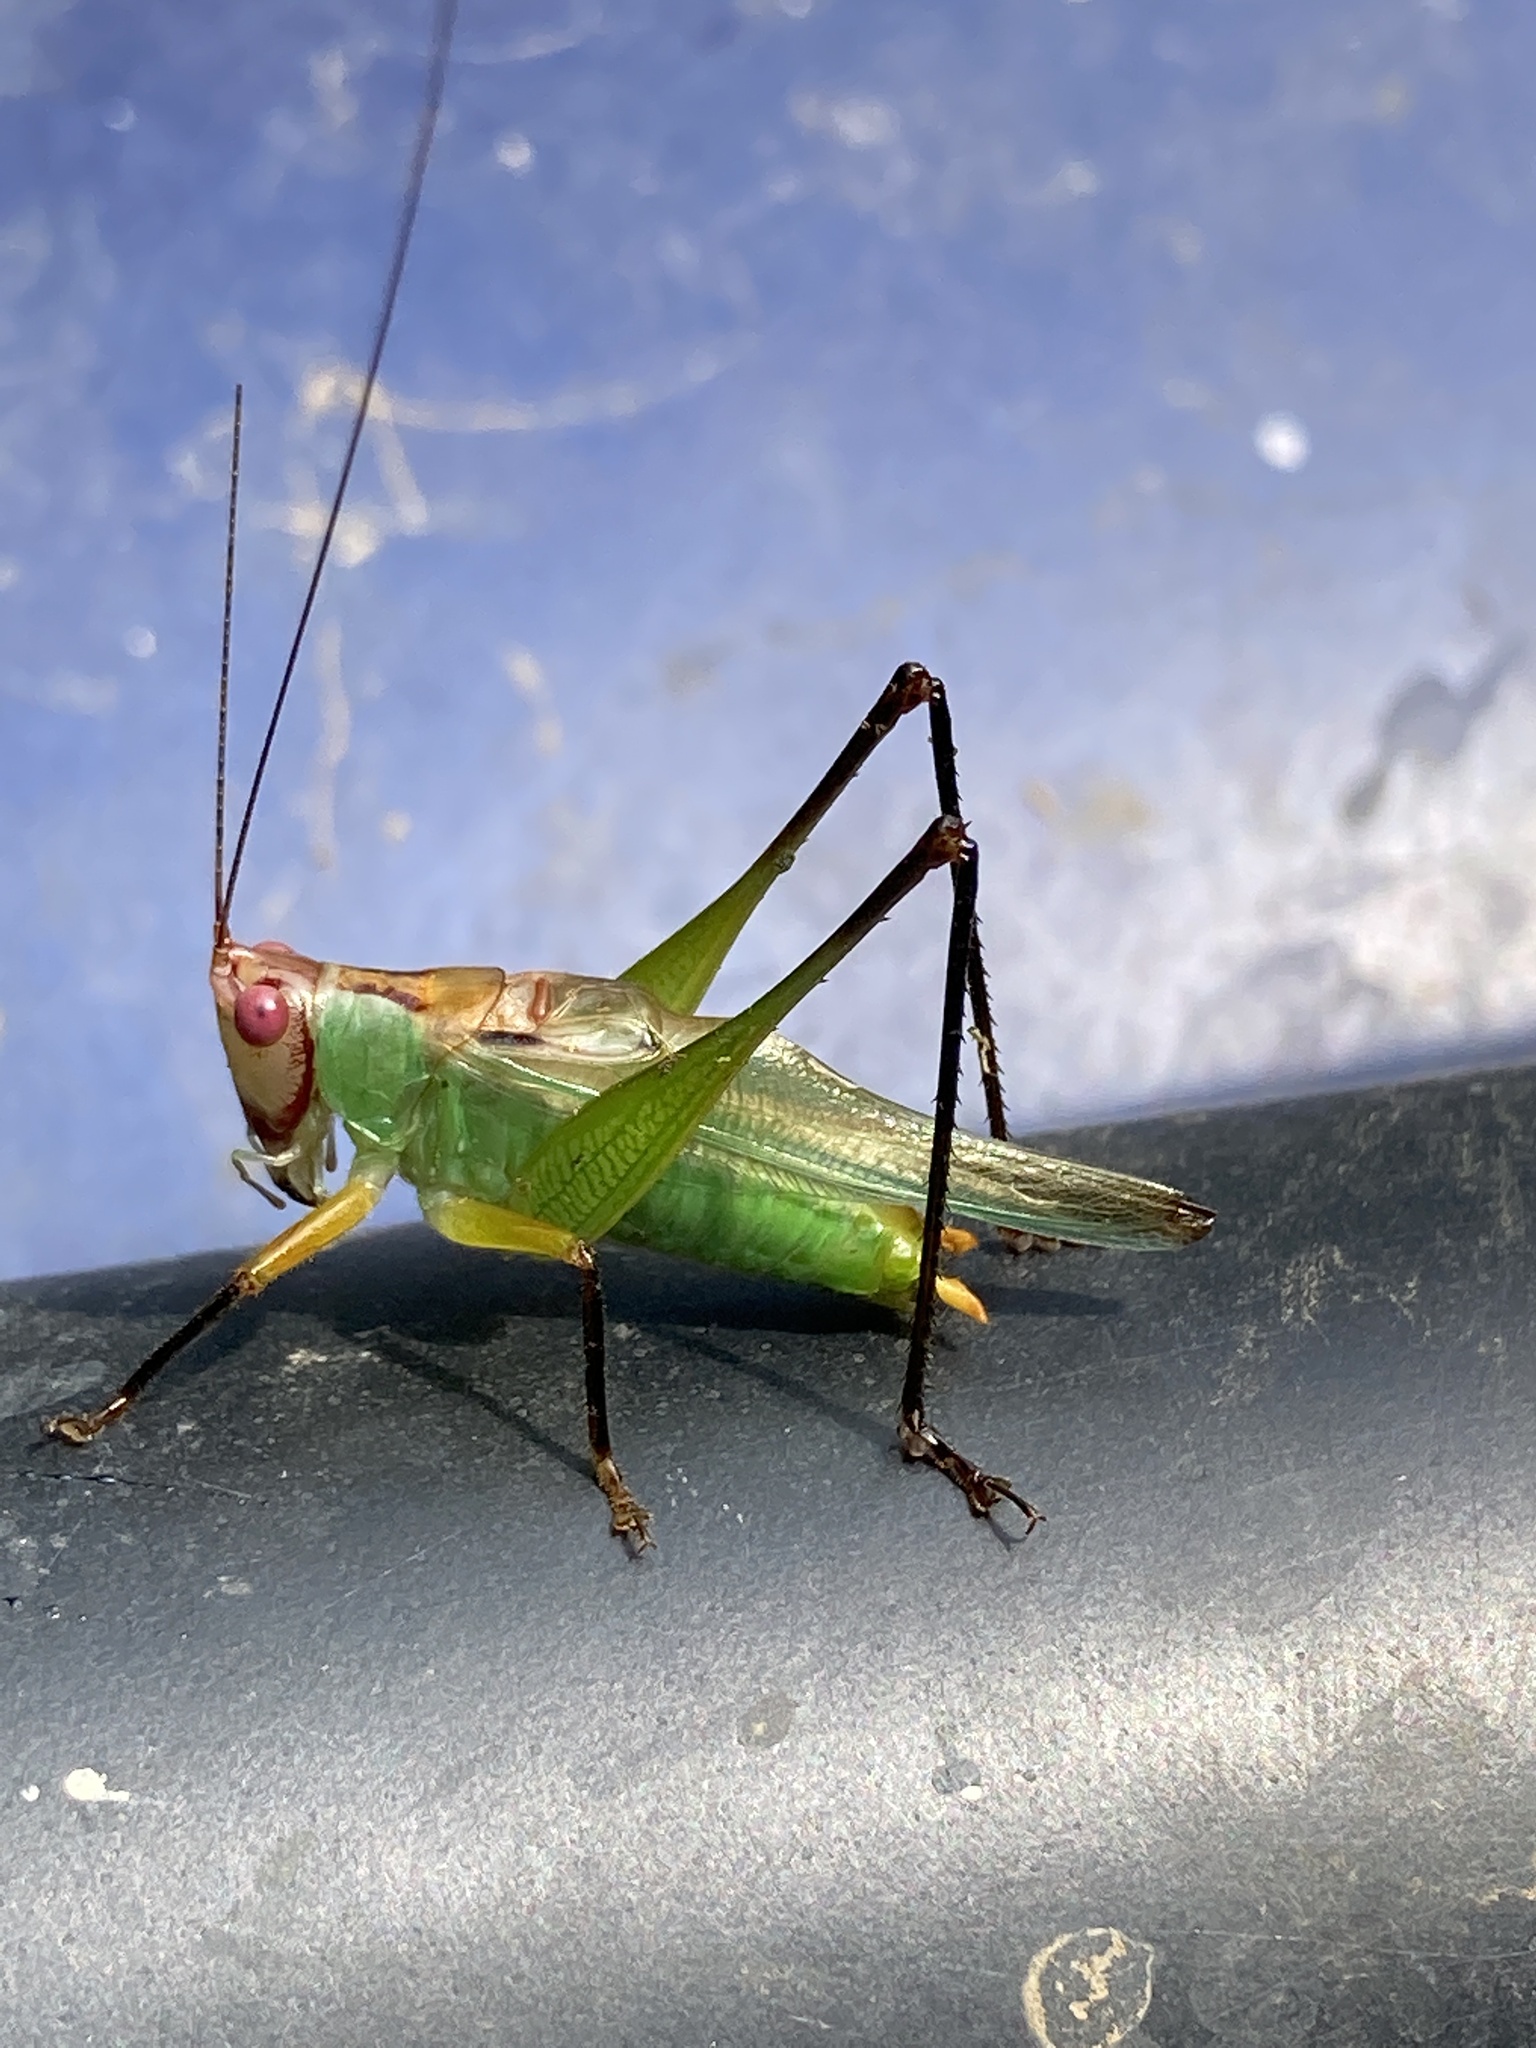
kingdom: Animalia
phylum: Arthropoda
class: Insecta
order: Orthoptera
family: Tettigoniidae
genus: Orchelimum
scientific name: Orchelimum nigripes
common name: Black-legged meadow katydid
